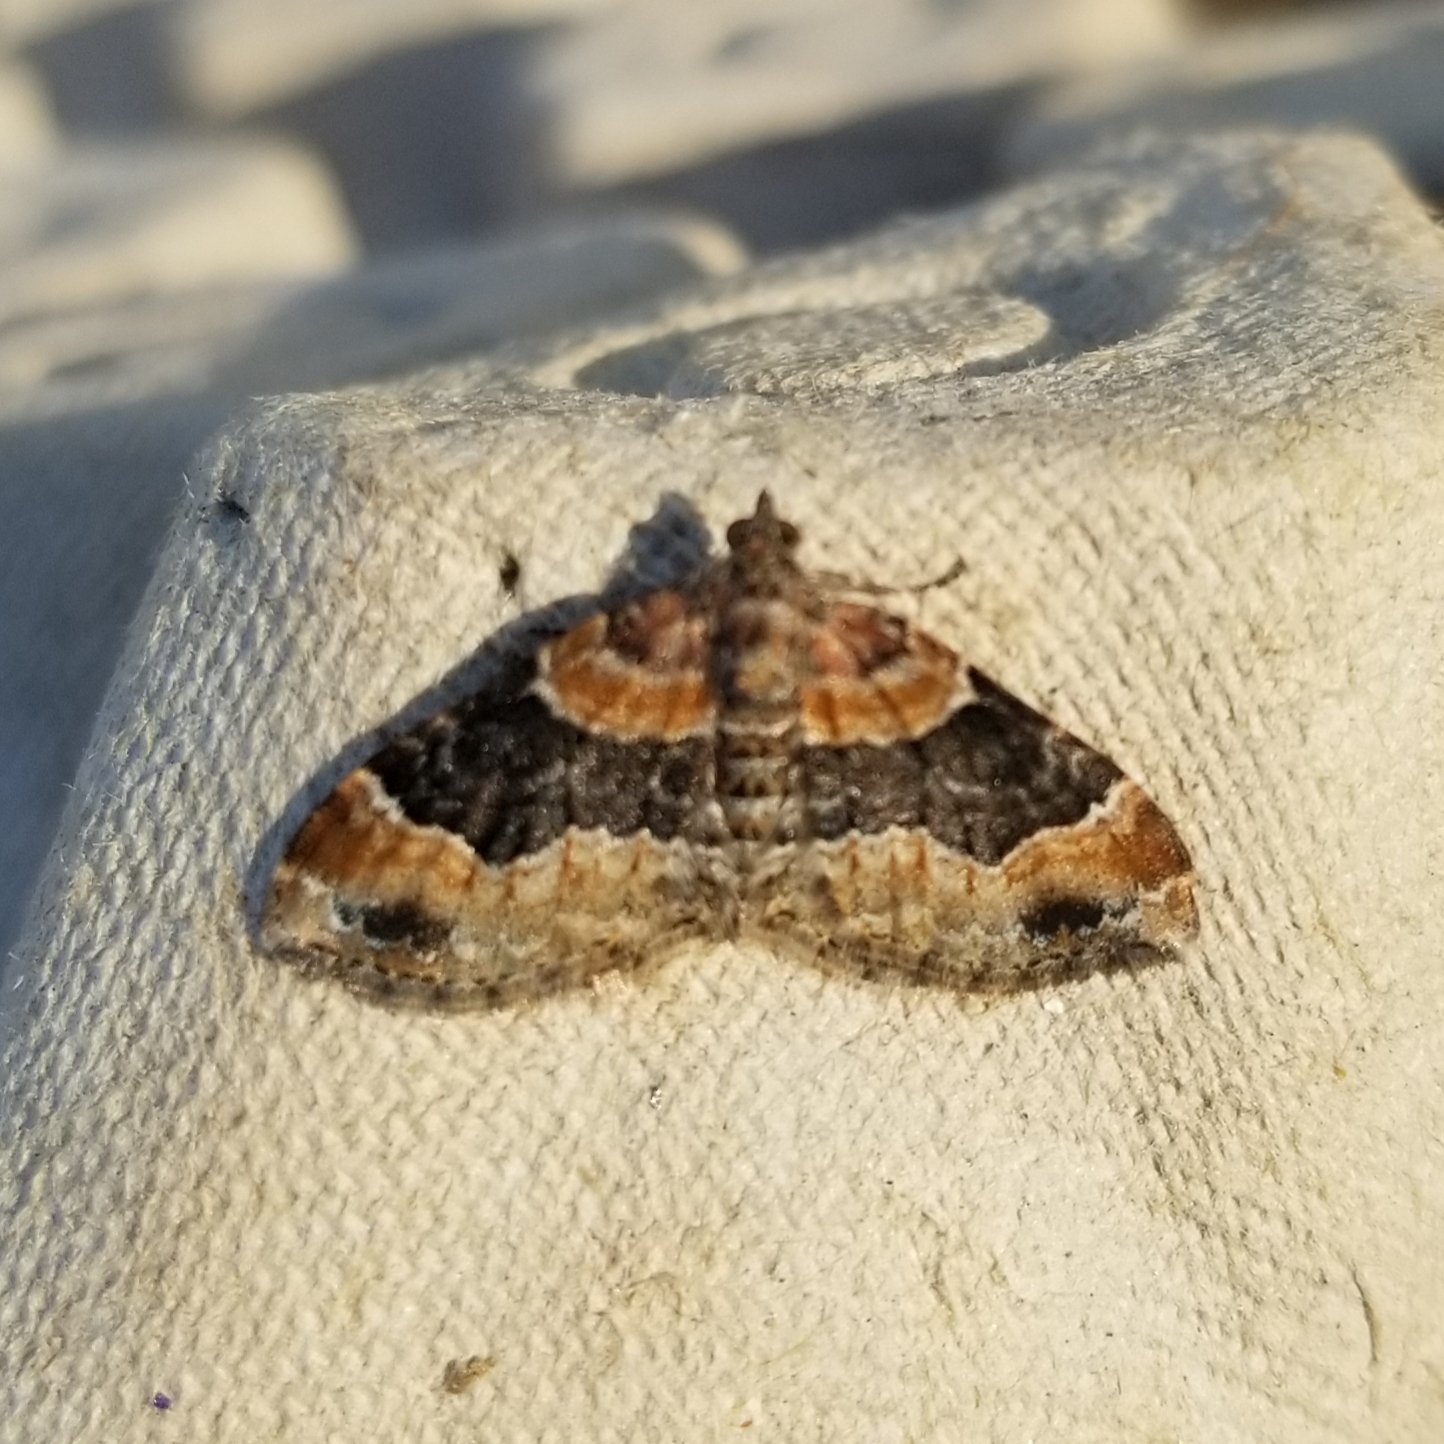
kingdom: Animalia
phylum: Arthropoda
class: Insecta
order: Lepidoptera
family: Geometridae
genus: Xanthorhoe
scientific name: Xanthorhoe ferrugata
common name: Dark-barred twin-spot carpet
